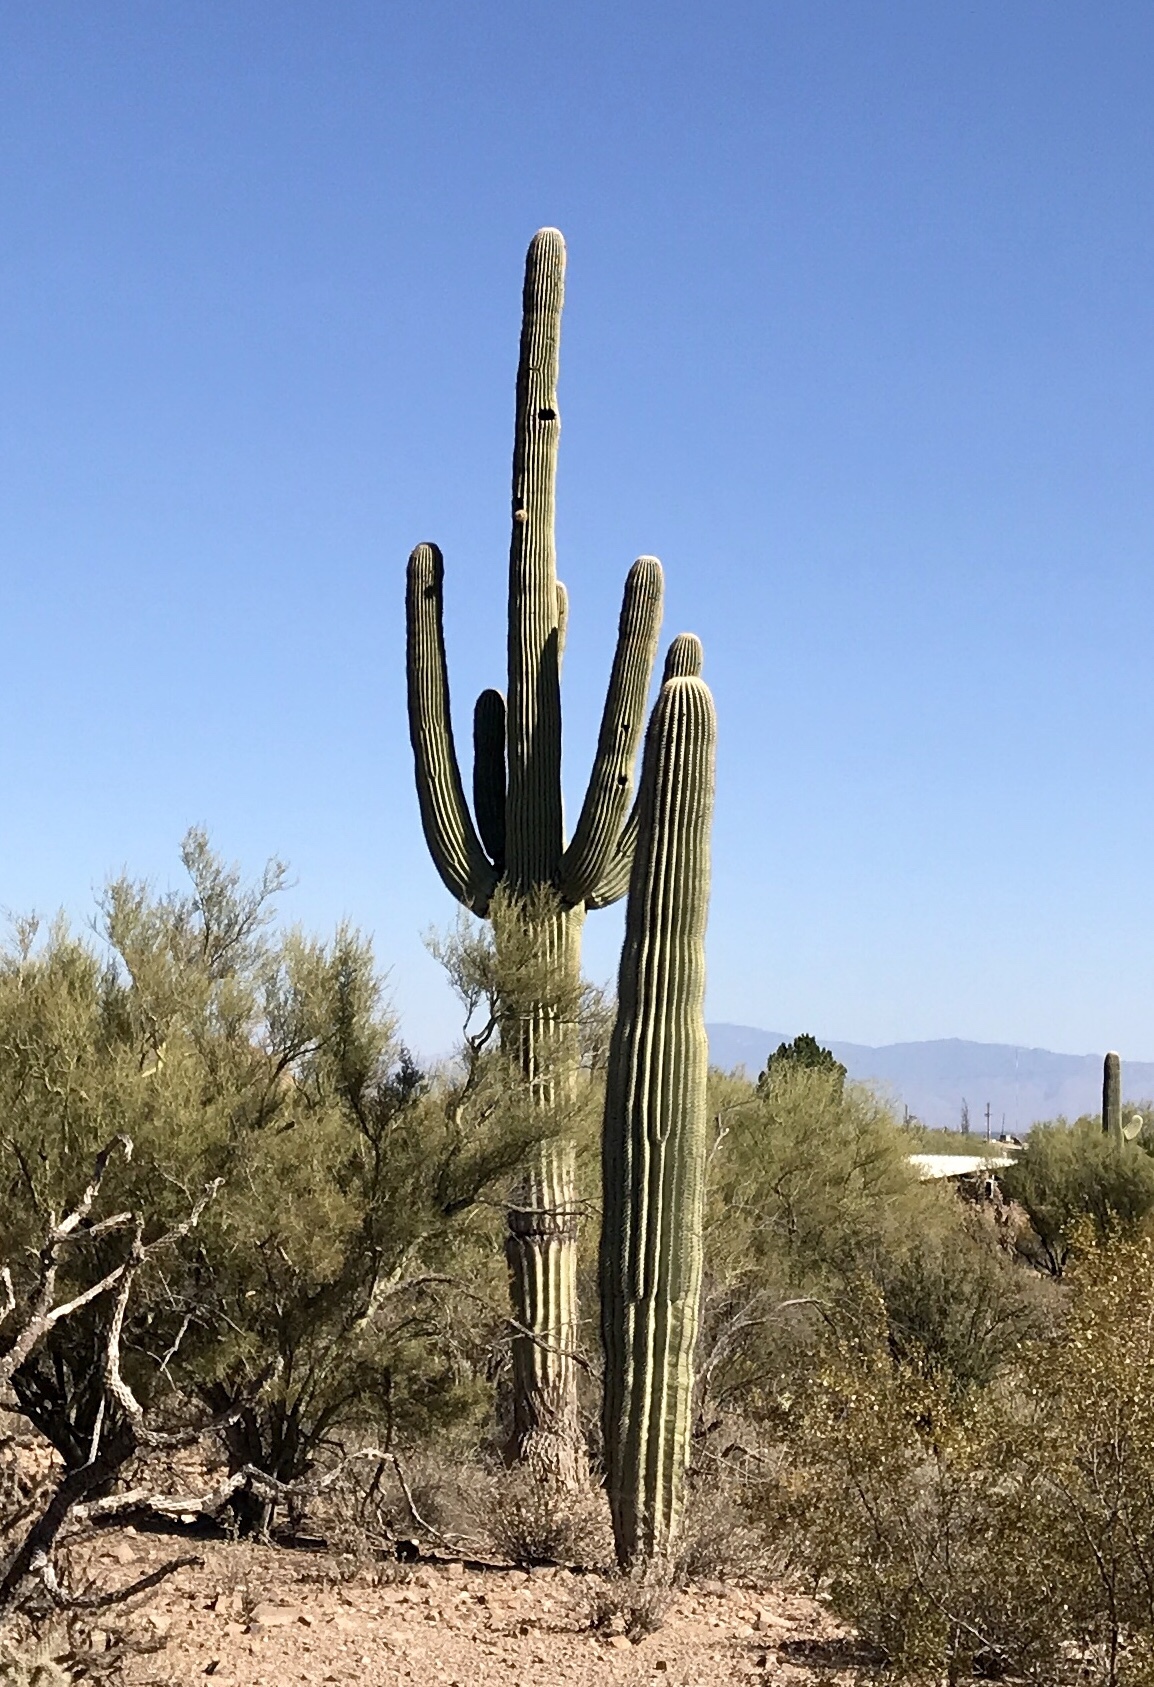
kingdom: Plantae
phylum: Tracheophyta
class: Magnoliopsida
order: Caryophyllales
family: Cactaceae
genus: Carnegiea
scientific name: Carnegiea gigantea
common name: Saguaro
